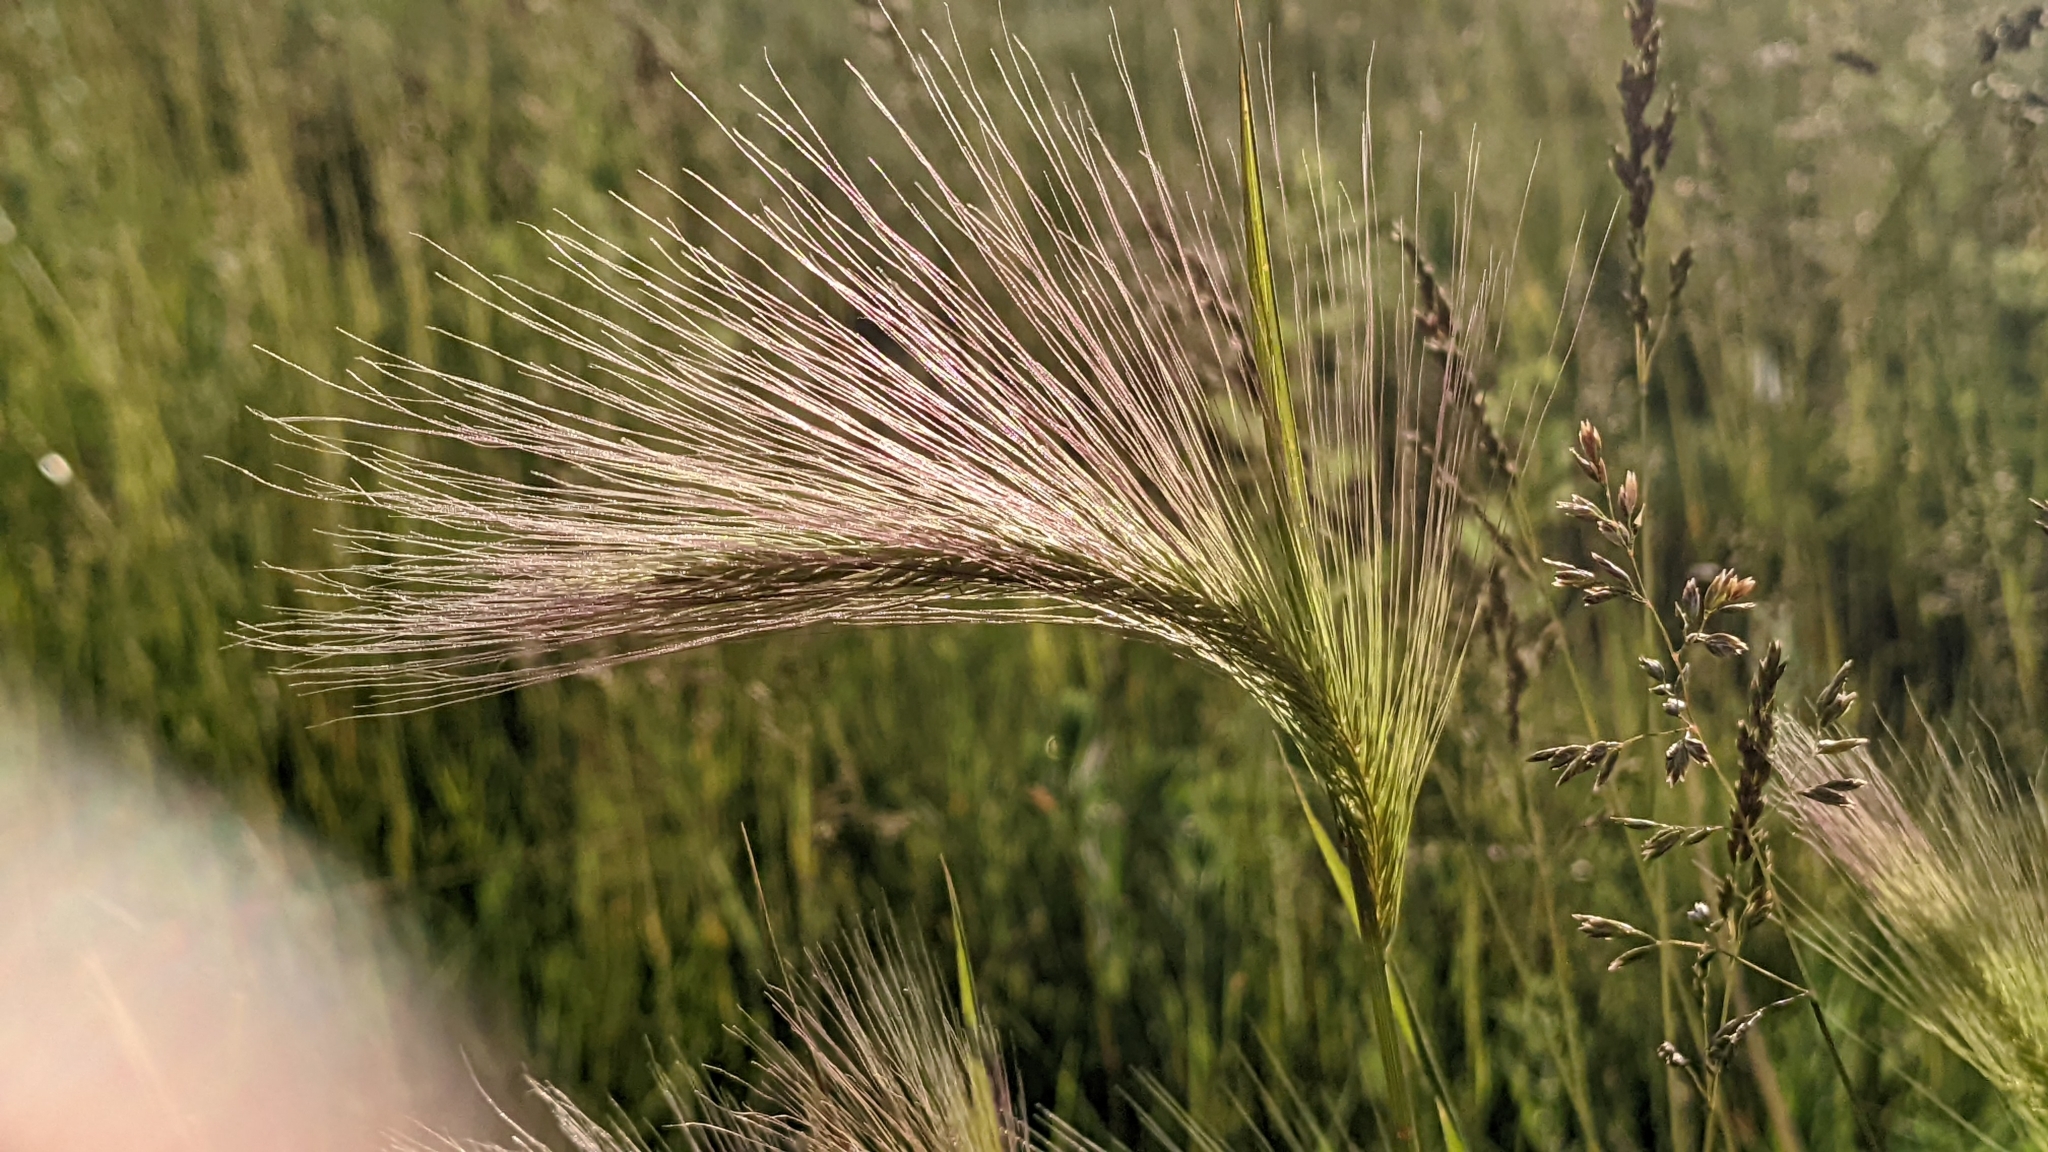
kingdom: Plantae
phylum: Tracheophyta
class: Liliopsida
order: Poales
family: Poaceae
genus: Hordeum
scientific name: Hordeum jubatum
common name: Foxtail barley
